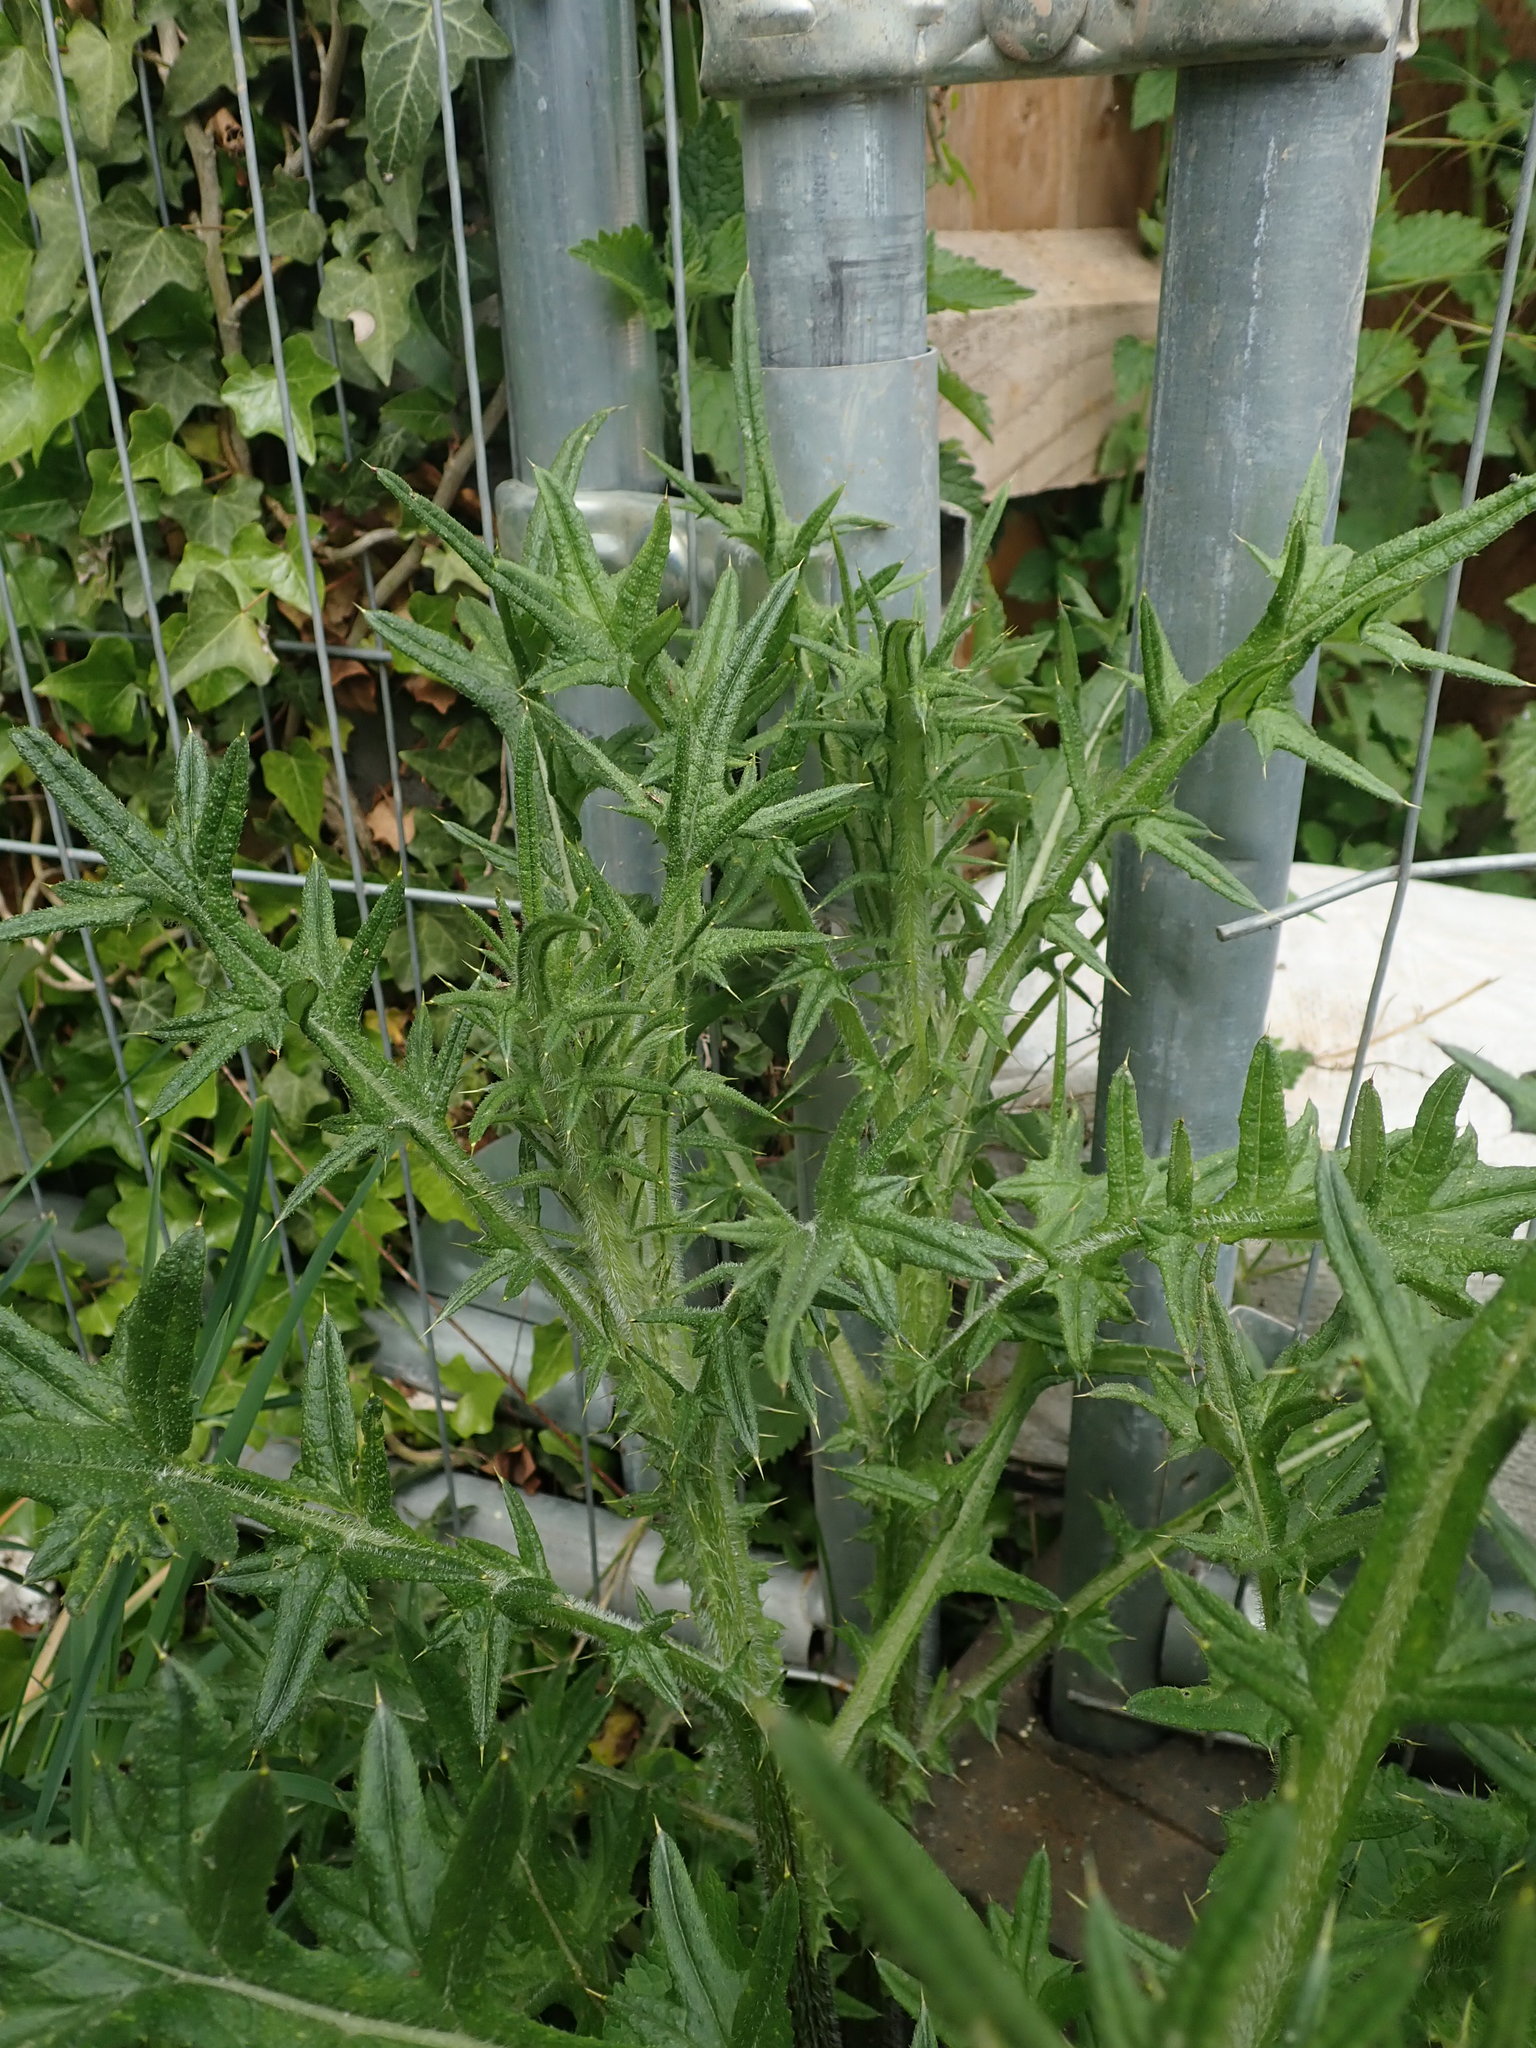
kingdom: Plantae
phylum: Tracheophyta
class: Magnoliopsida
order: Asterales
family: Asteraceae
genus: Cirsium
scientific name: Cirsium vulgare
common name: Bull thistle
